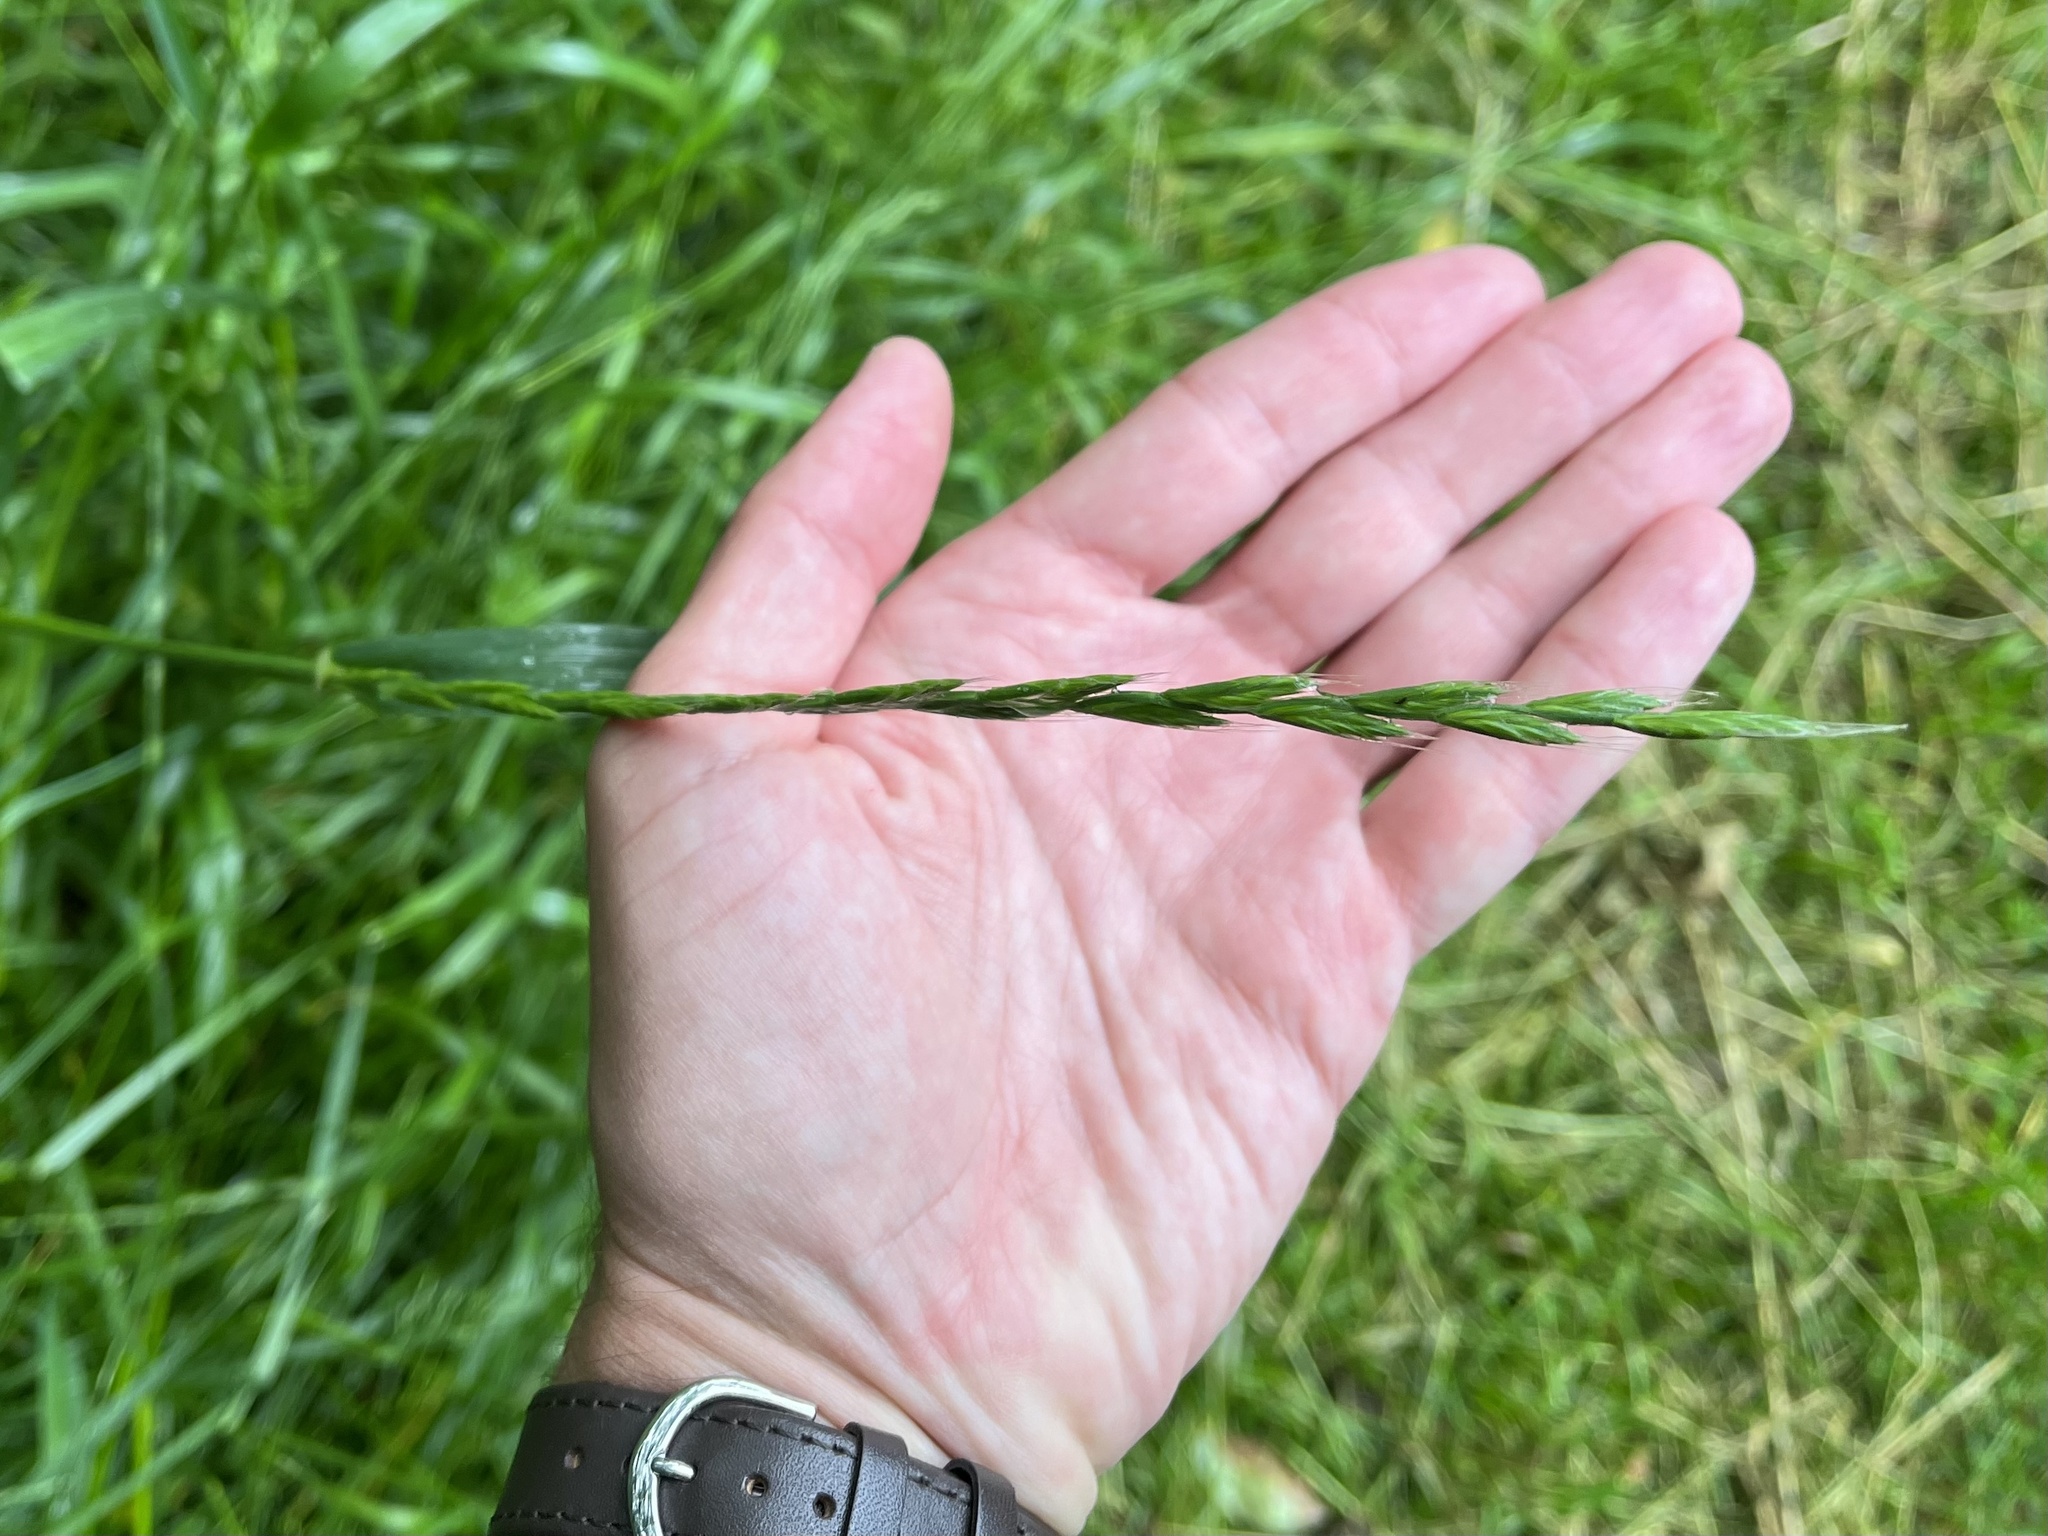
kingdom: Plantae
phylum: Tracheophyta
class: Liliopsida
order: Poales
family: Poaceae
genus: Lolium
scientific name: Lolium multiflorum
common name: Annual ryegrass
